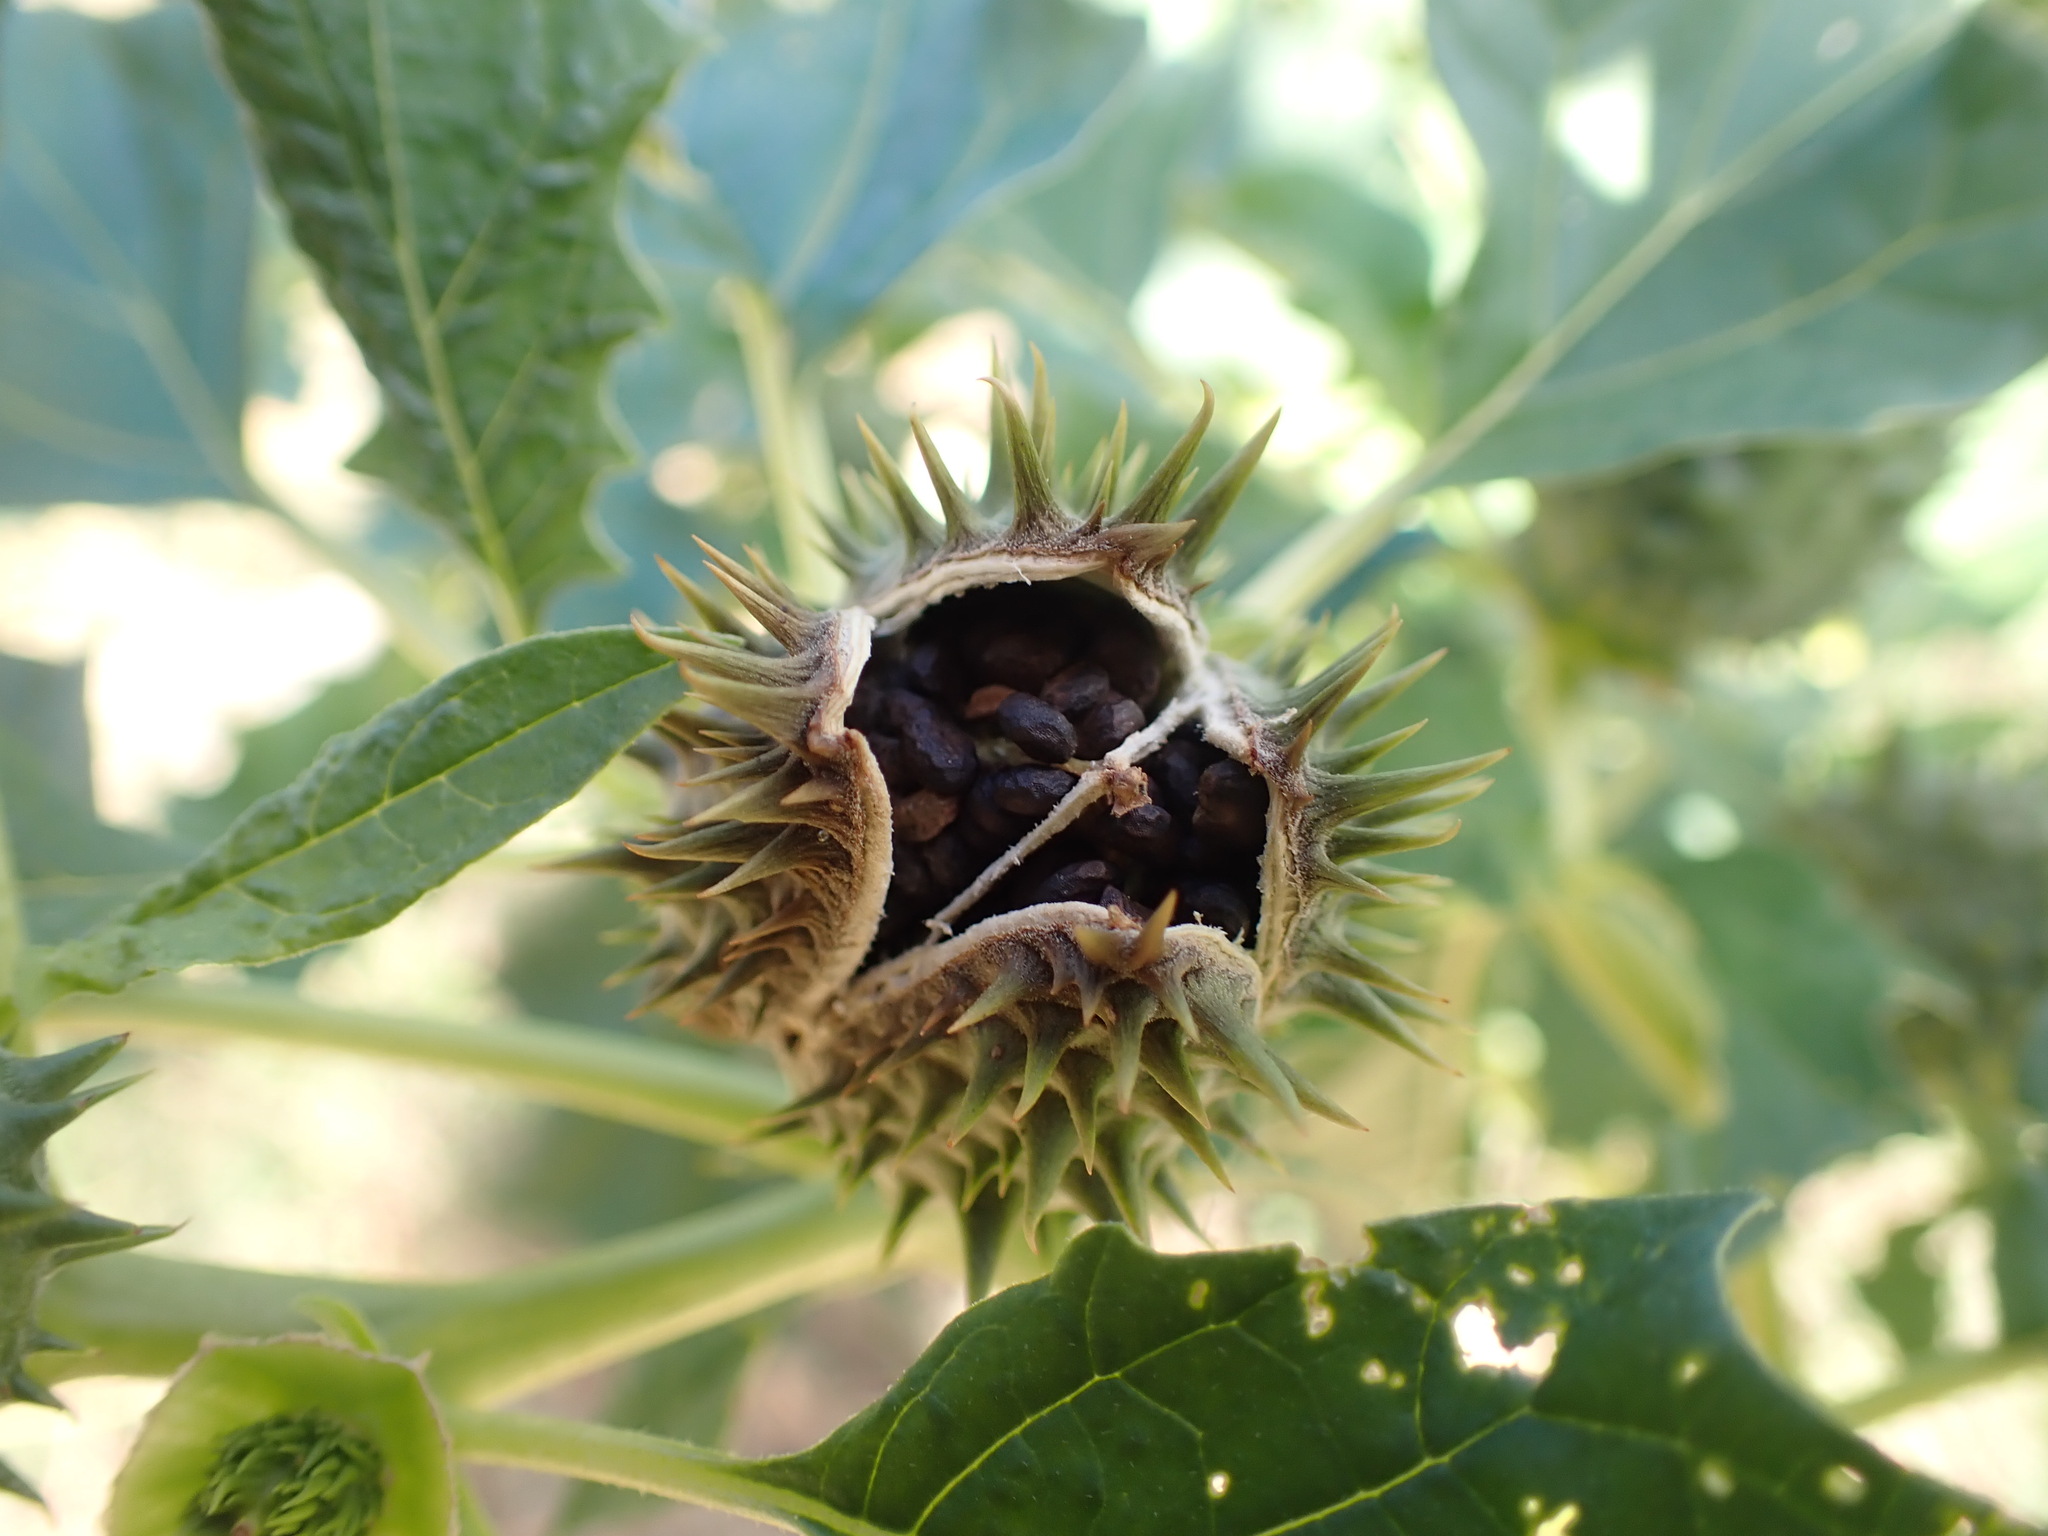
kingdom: Plantae
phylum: Tracheophyta
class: Magnoliopsida
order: Solanales
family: Solanaceae
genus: Datura
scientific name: Datura stramonium
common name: Thorn-apple
